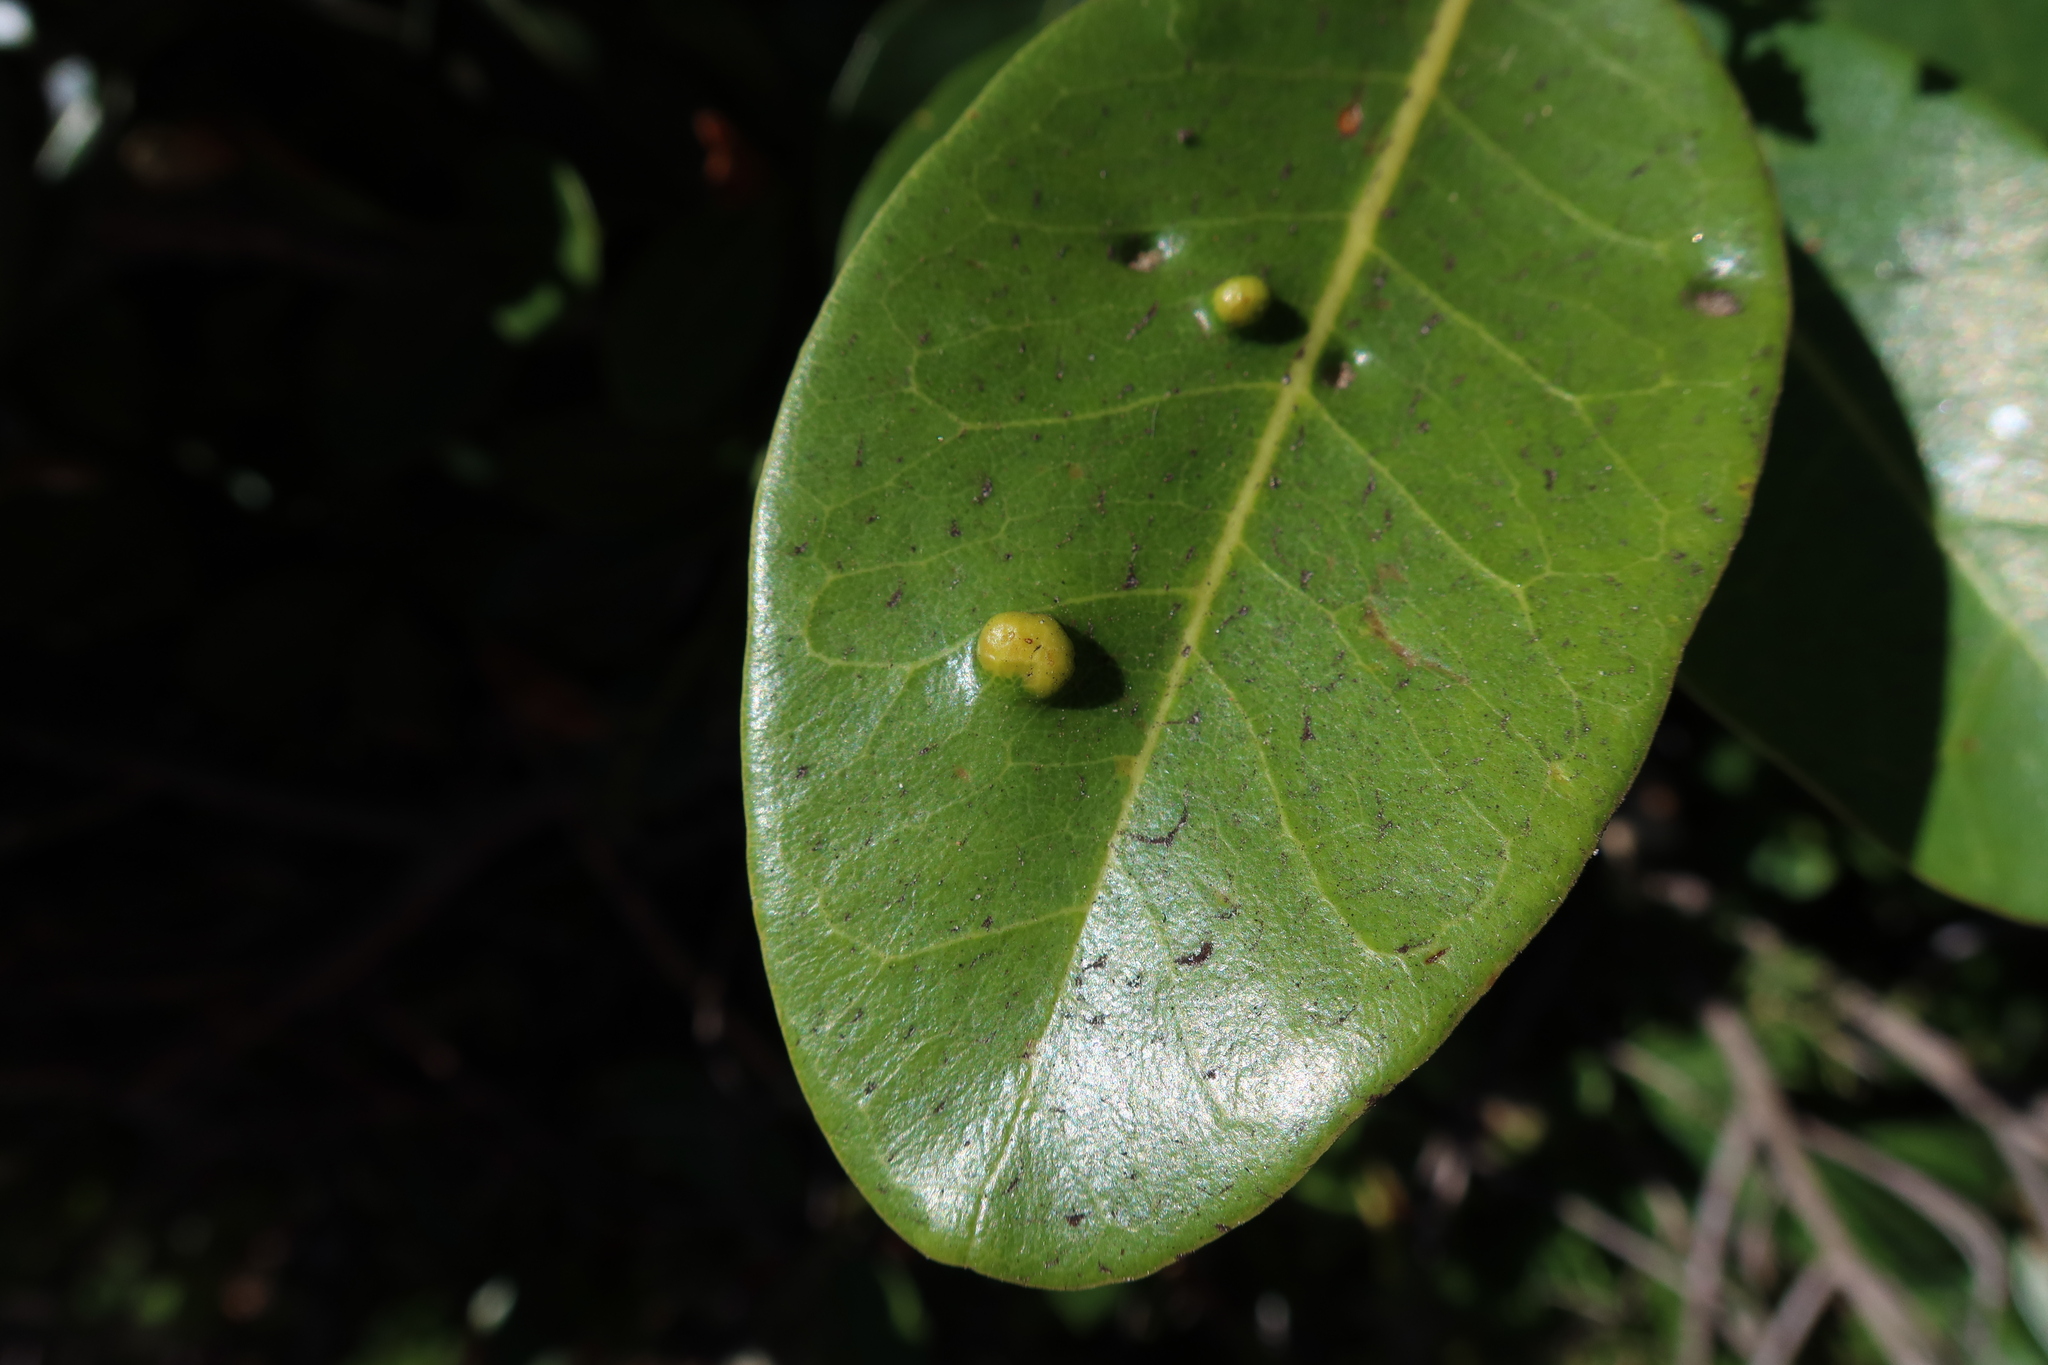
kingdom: Animalia
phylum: Arthropoda
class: Arachnida
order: Trombidiformes
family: Eriophyidae
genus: Eriophyes
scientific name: Eriophyes
